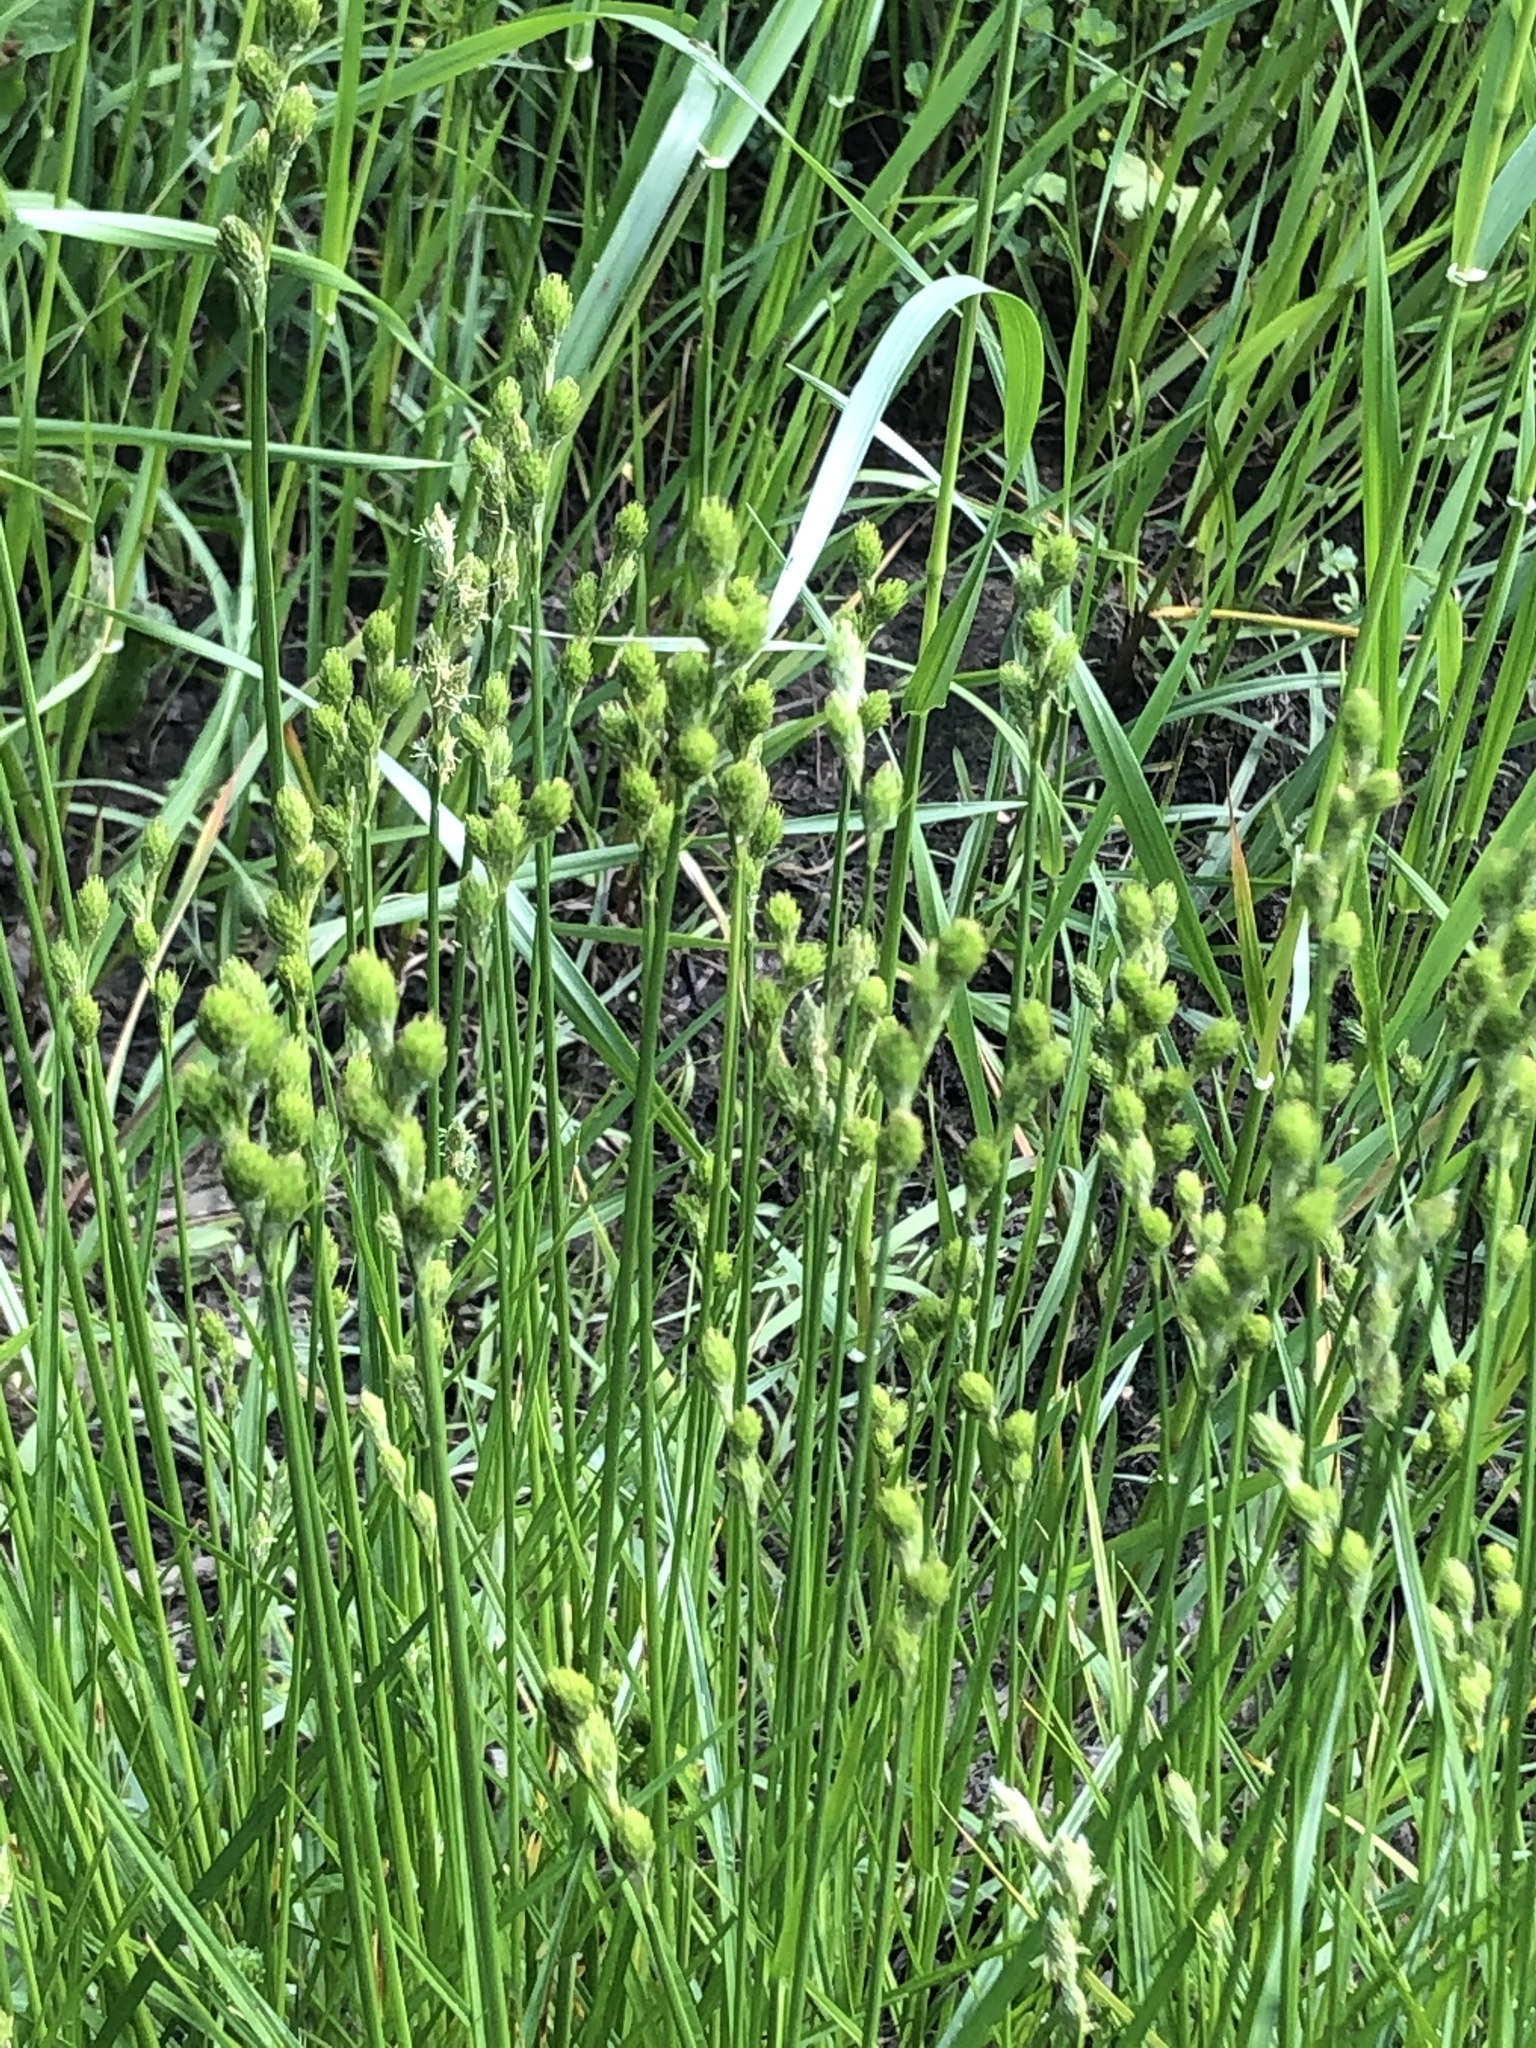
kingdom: Plantae
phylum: Tracheophyta
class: Liliopsida
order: Poales
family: Cyperaceae
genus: Carex
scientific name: Carex longii
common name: Long's sedge
